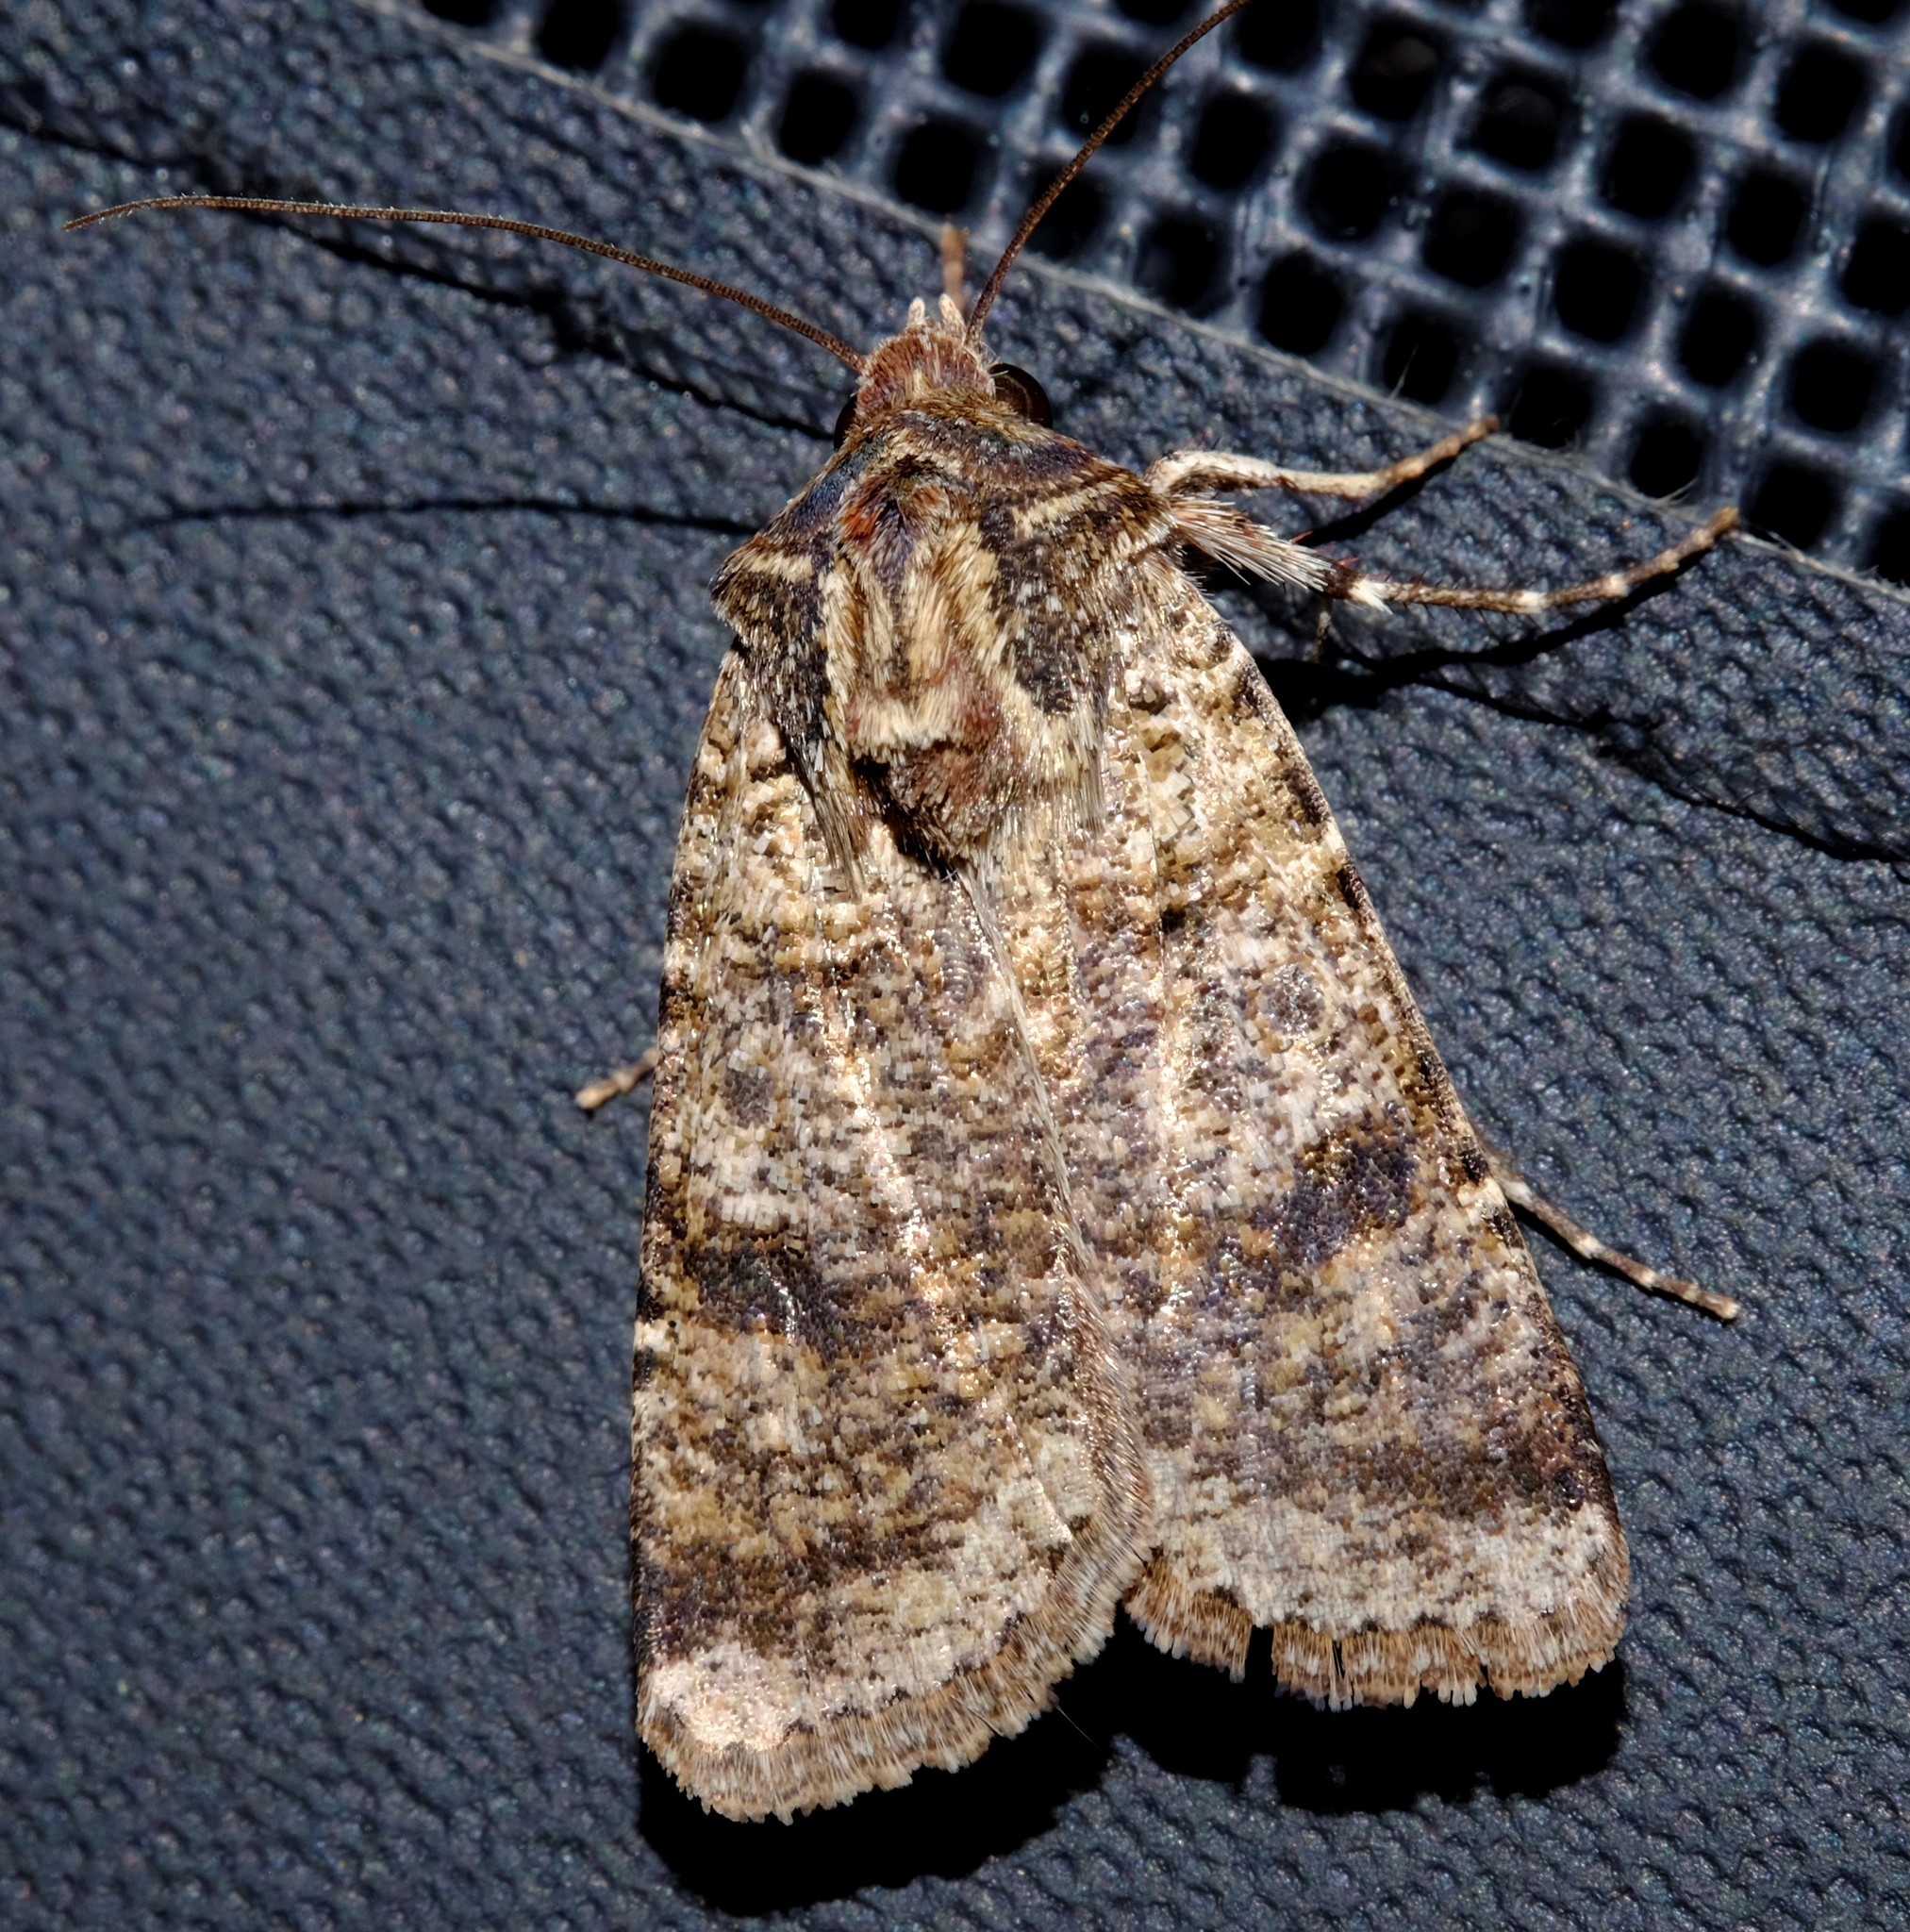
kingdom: Animalia
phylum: Arthropoda
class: Insecta
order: Lepidoptera
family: Noctuidae
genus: Agrotis
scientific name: Agrotis porphyricollis
